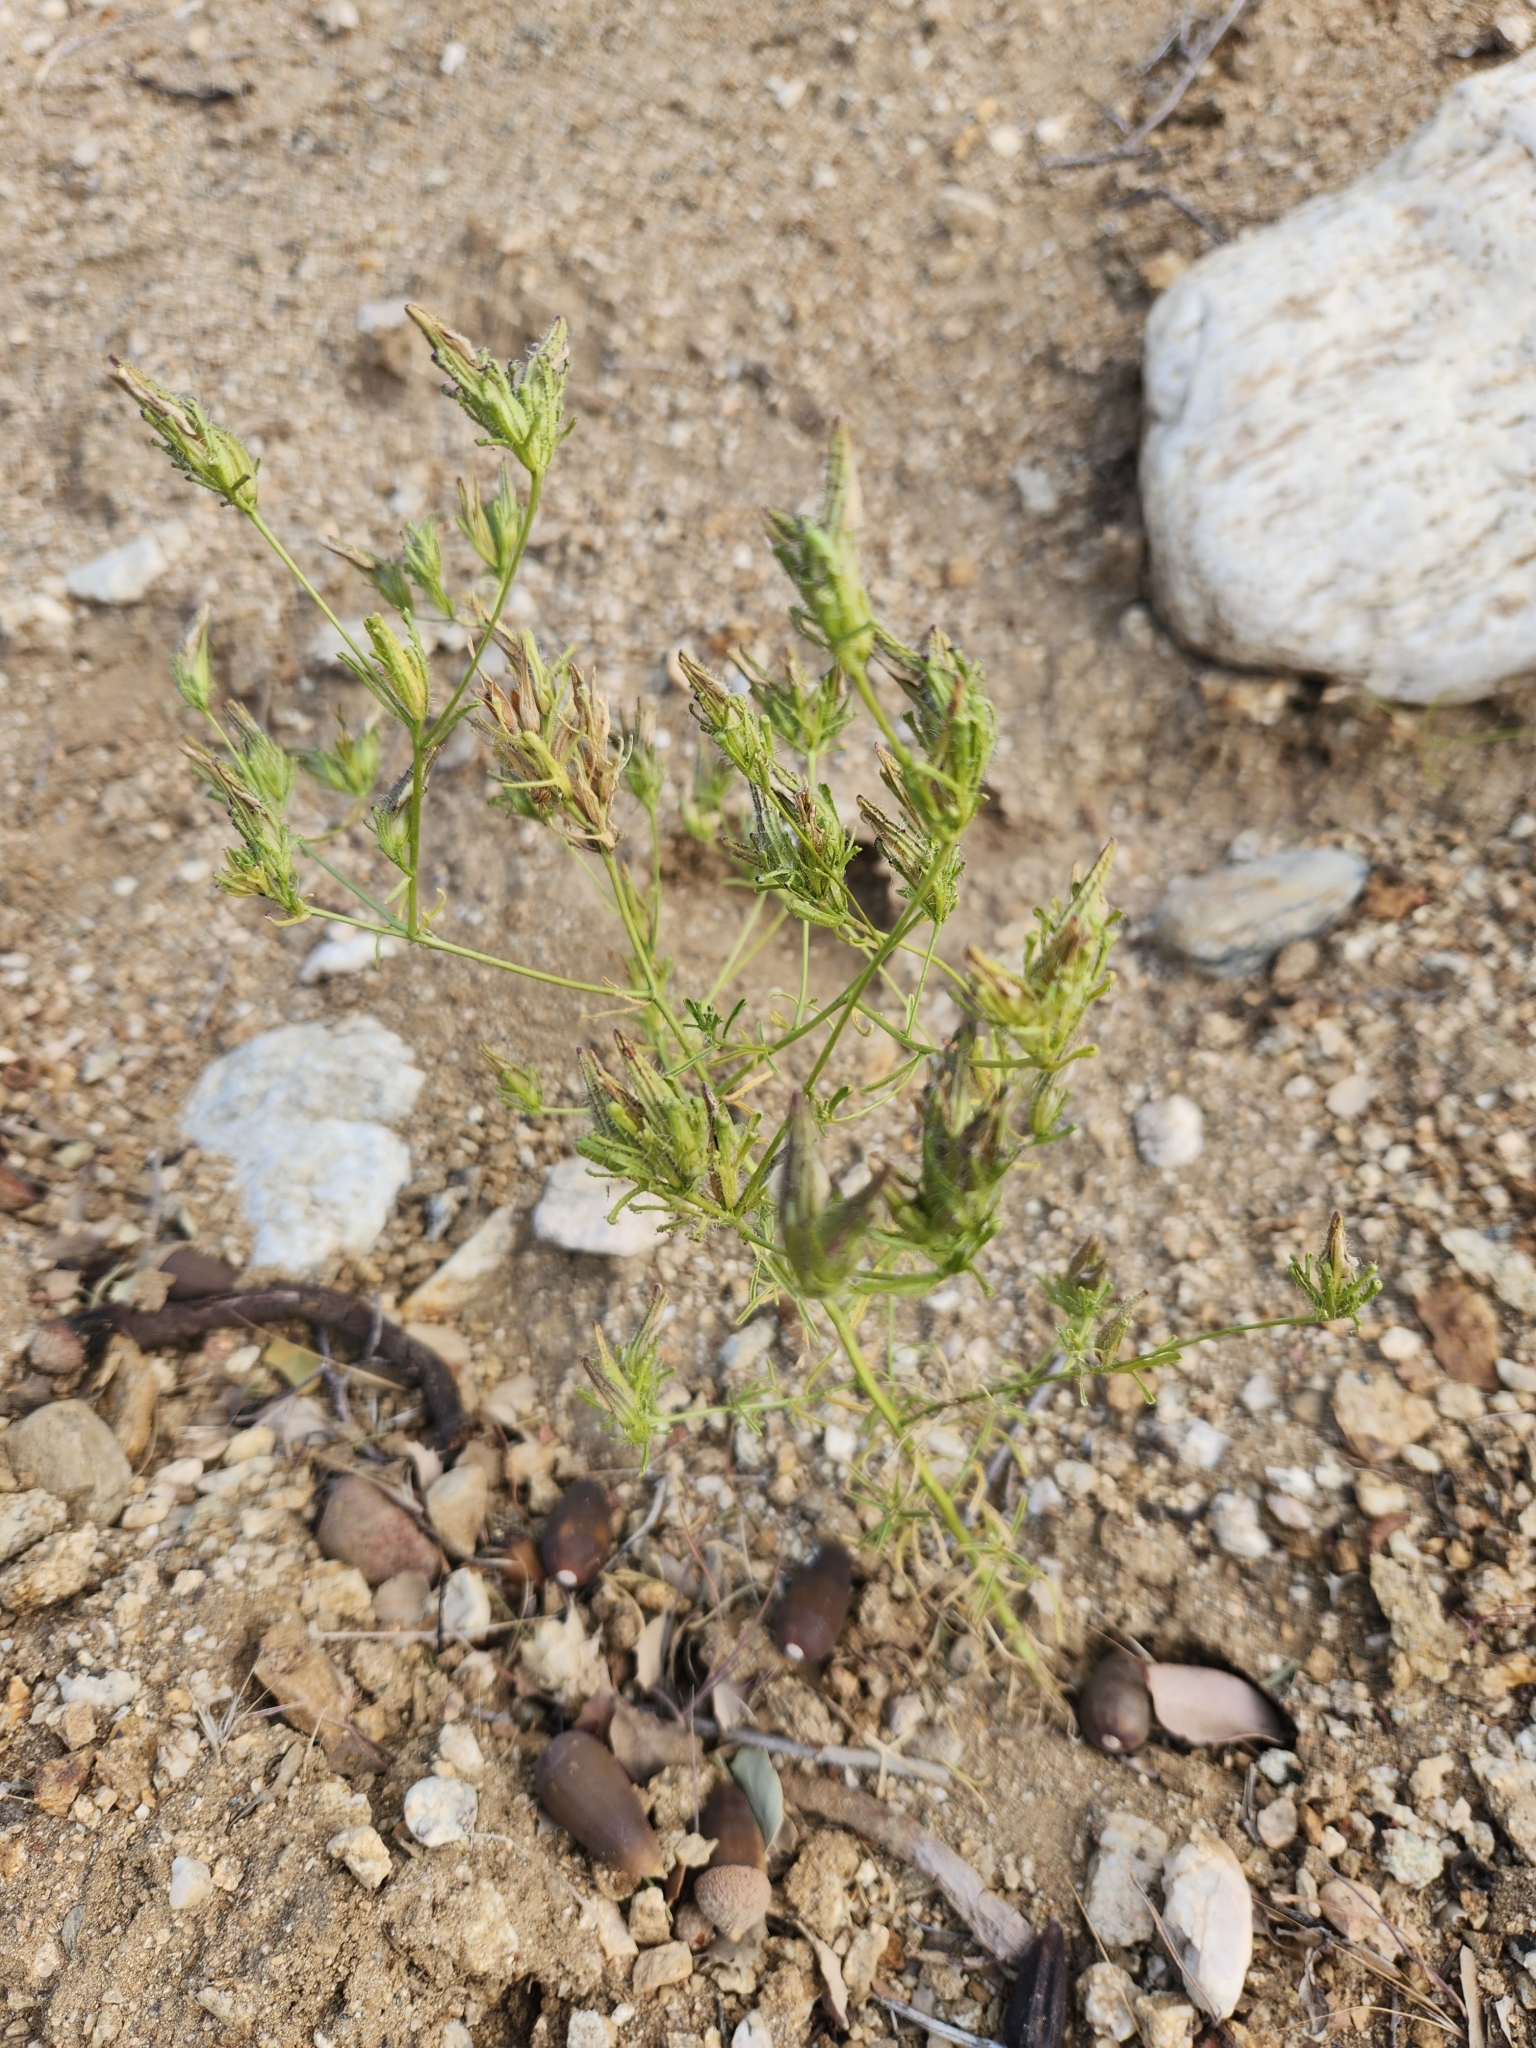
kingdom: Plantae
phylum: Tracheophyta
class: Magnoliopsida
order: Lamiales
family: Orobanchaceae
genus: Cordylanthus
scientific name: Cordylanthus rigidus
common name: Stiff-branch bird's-beak
